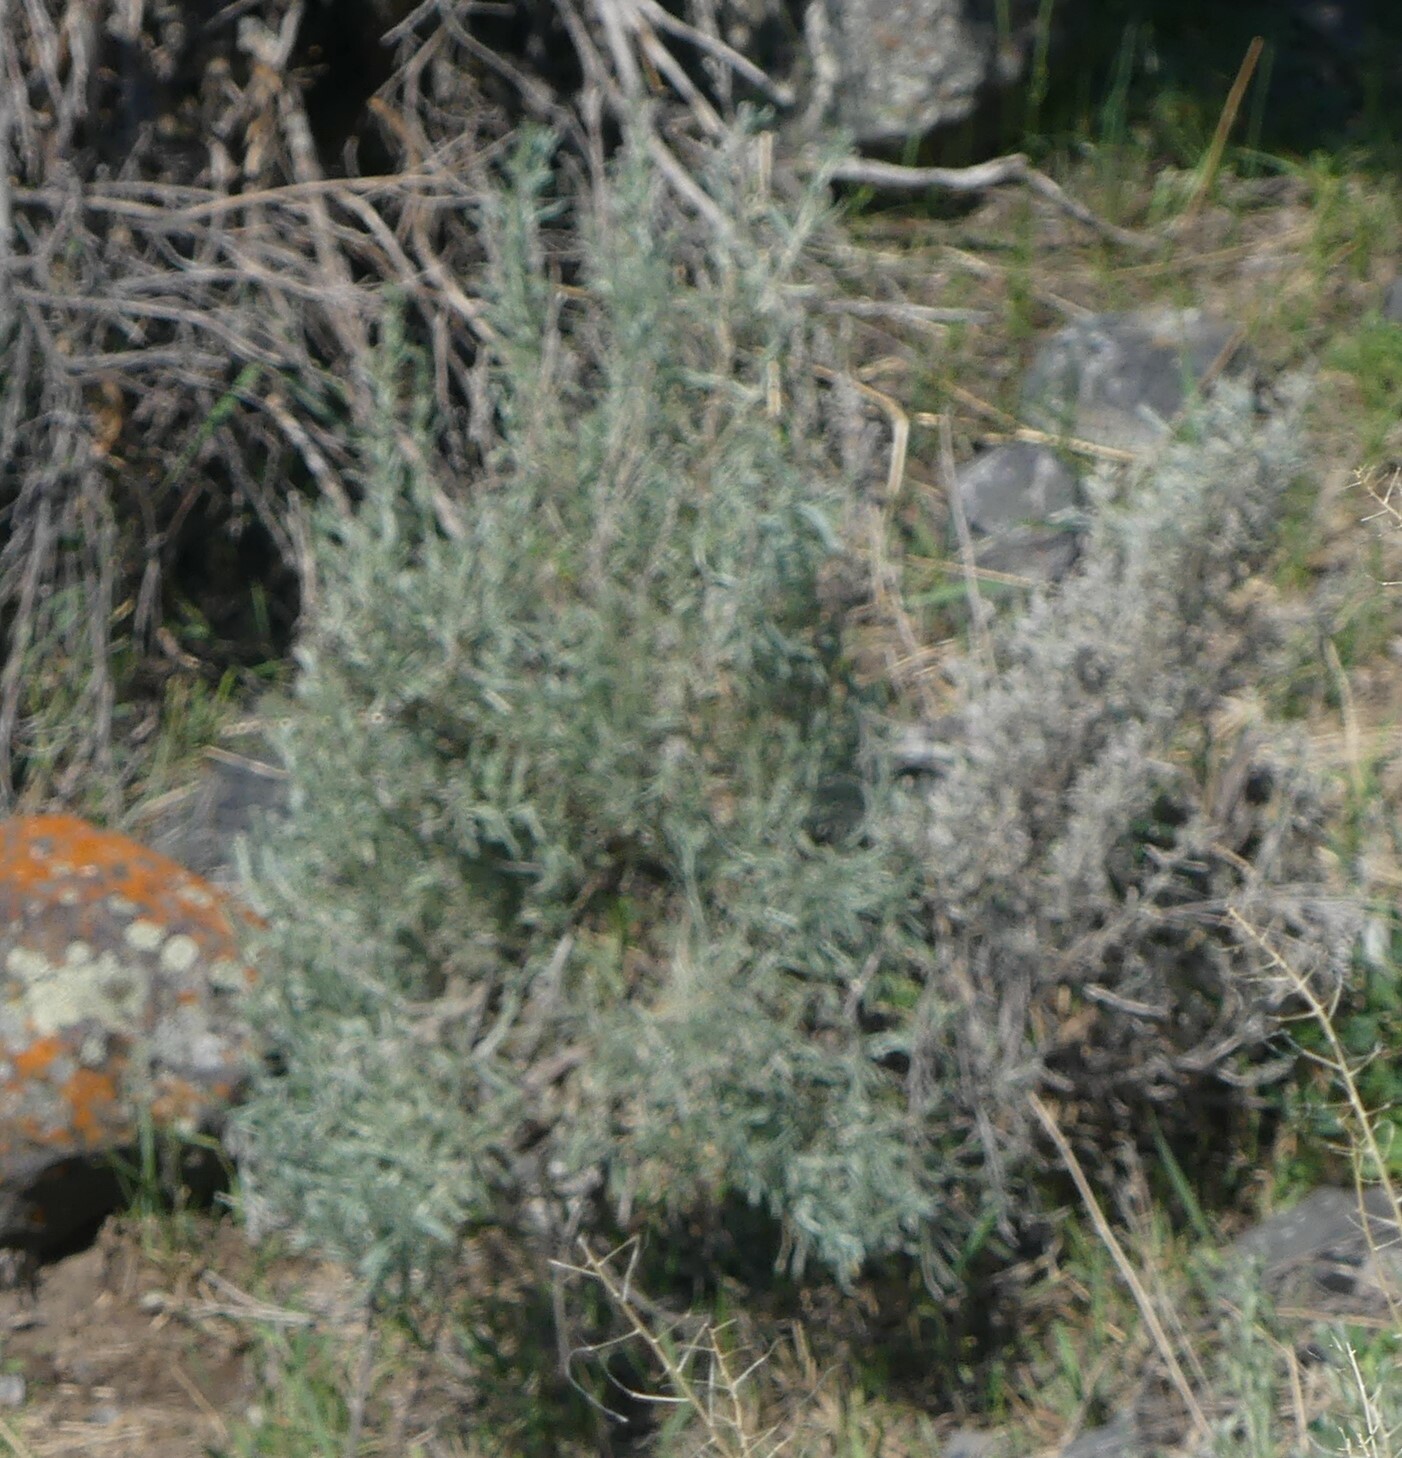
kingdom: Plantae
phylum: Tracheophyta
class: Magnoliopsida
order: Asterales
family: Asteraceae
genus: Artemisia
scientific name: Artemisia tridentata
